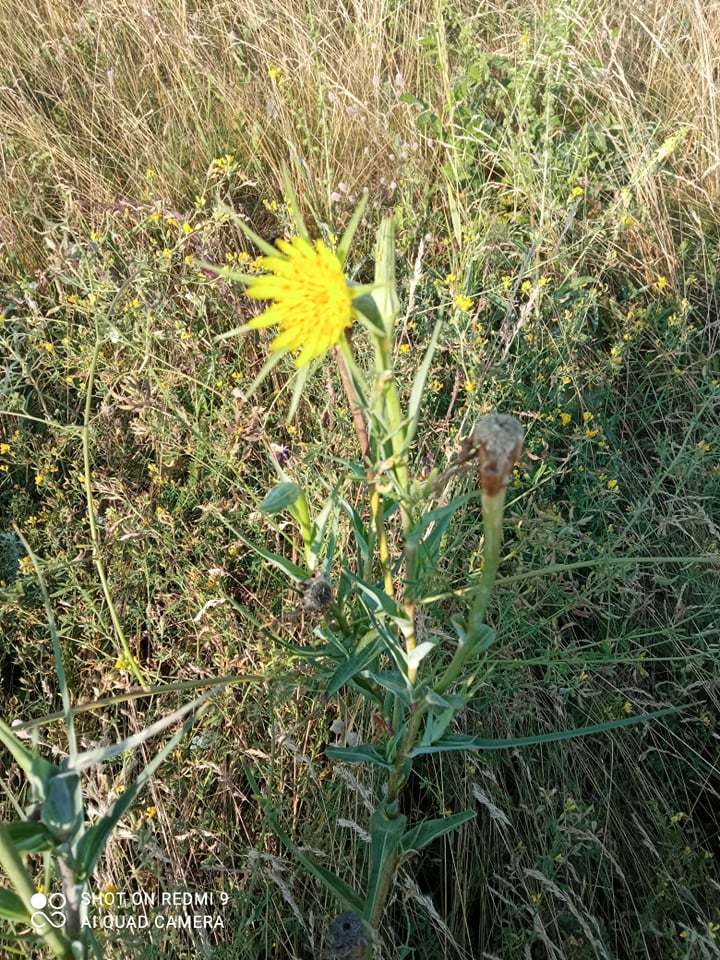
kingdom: Plantae
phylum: Tracheophyta
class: Magnoliopsida
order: Asterales
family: Asteraceae
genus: Tragopogon
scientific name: Tragopogon dubius
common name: Yellow salsify
